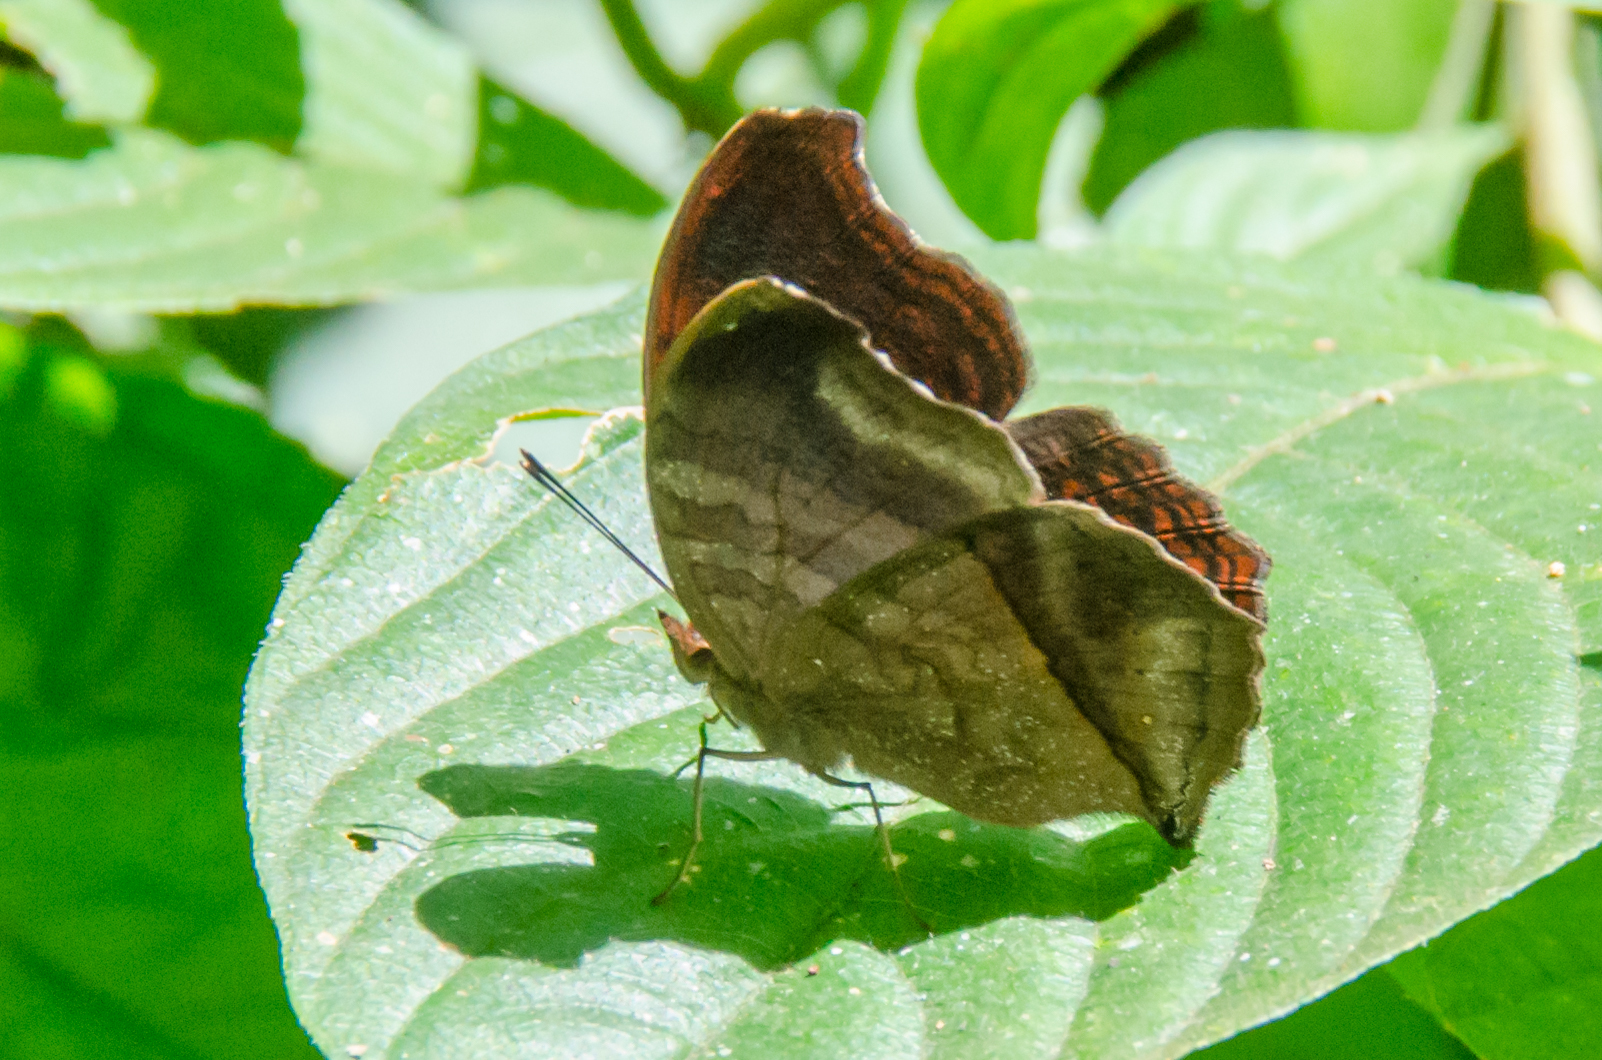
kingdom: Animalia
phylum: Arthropoda
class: Insecta
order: Lepidoptera
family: Nymphalidae
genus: Junonia
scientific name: Junonia stygia
